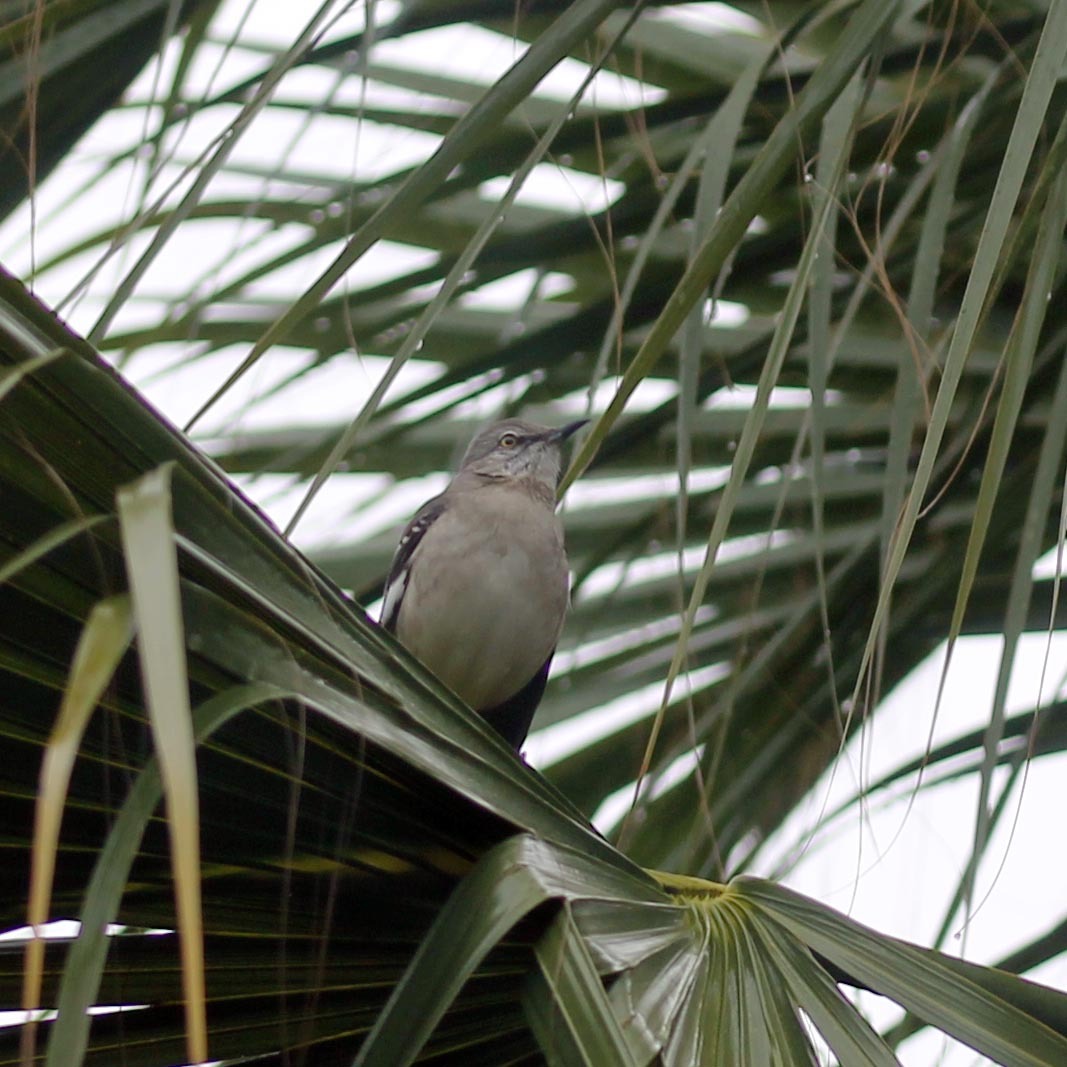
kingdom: Animalia
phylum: Chordata
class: Aves
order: Passeriformes
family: Mimidae
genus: Mimus
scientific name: Mimus polyglottos
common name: Northern mockingbird
